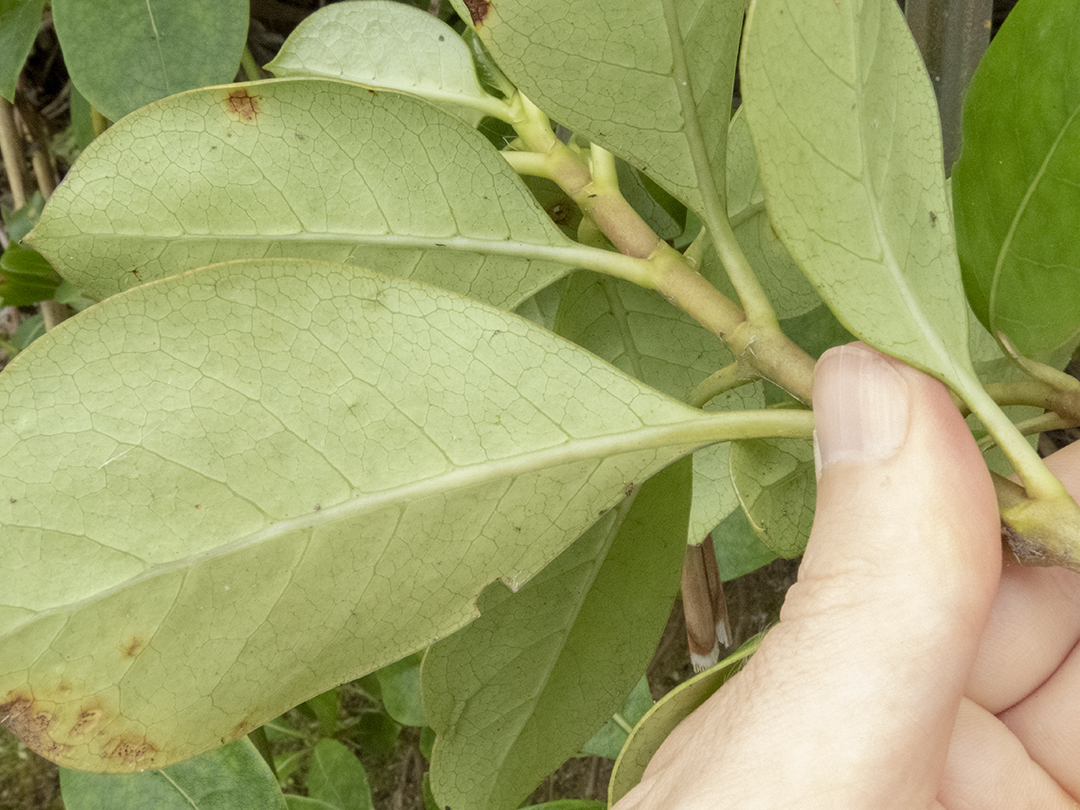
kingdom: Plantae
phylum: Tracheophyta
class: Magnoliopsida
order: Gentianales
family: Rubiaceae
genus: Coprosma
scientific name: Coprosma lucida
